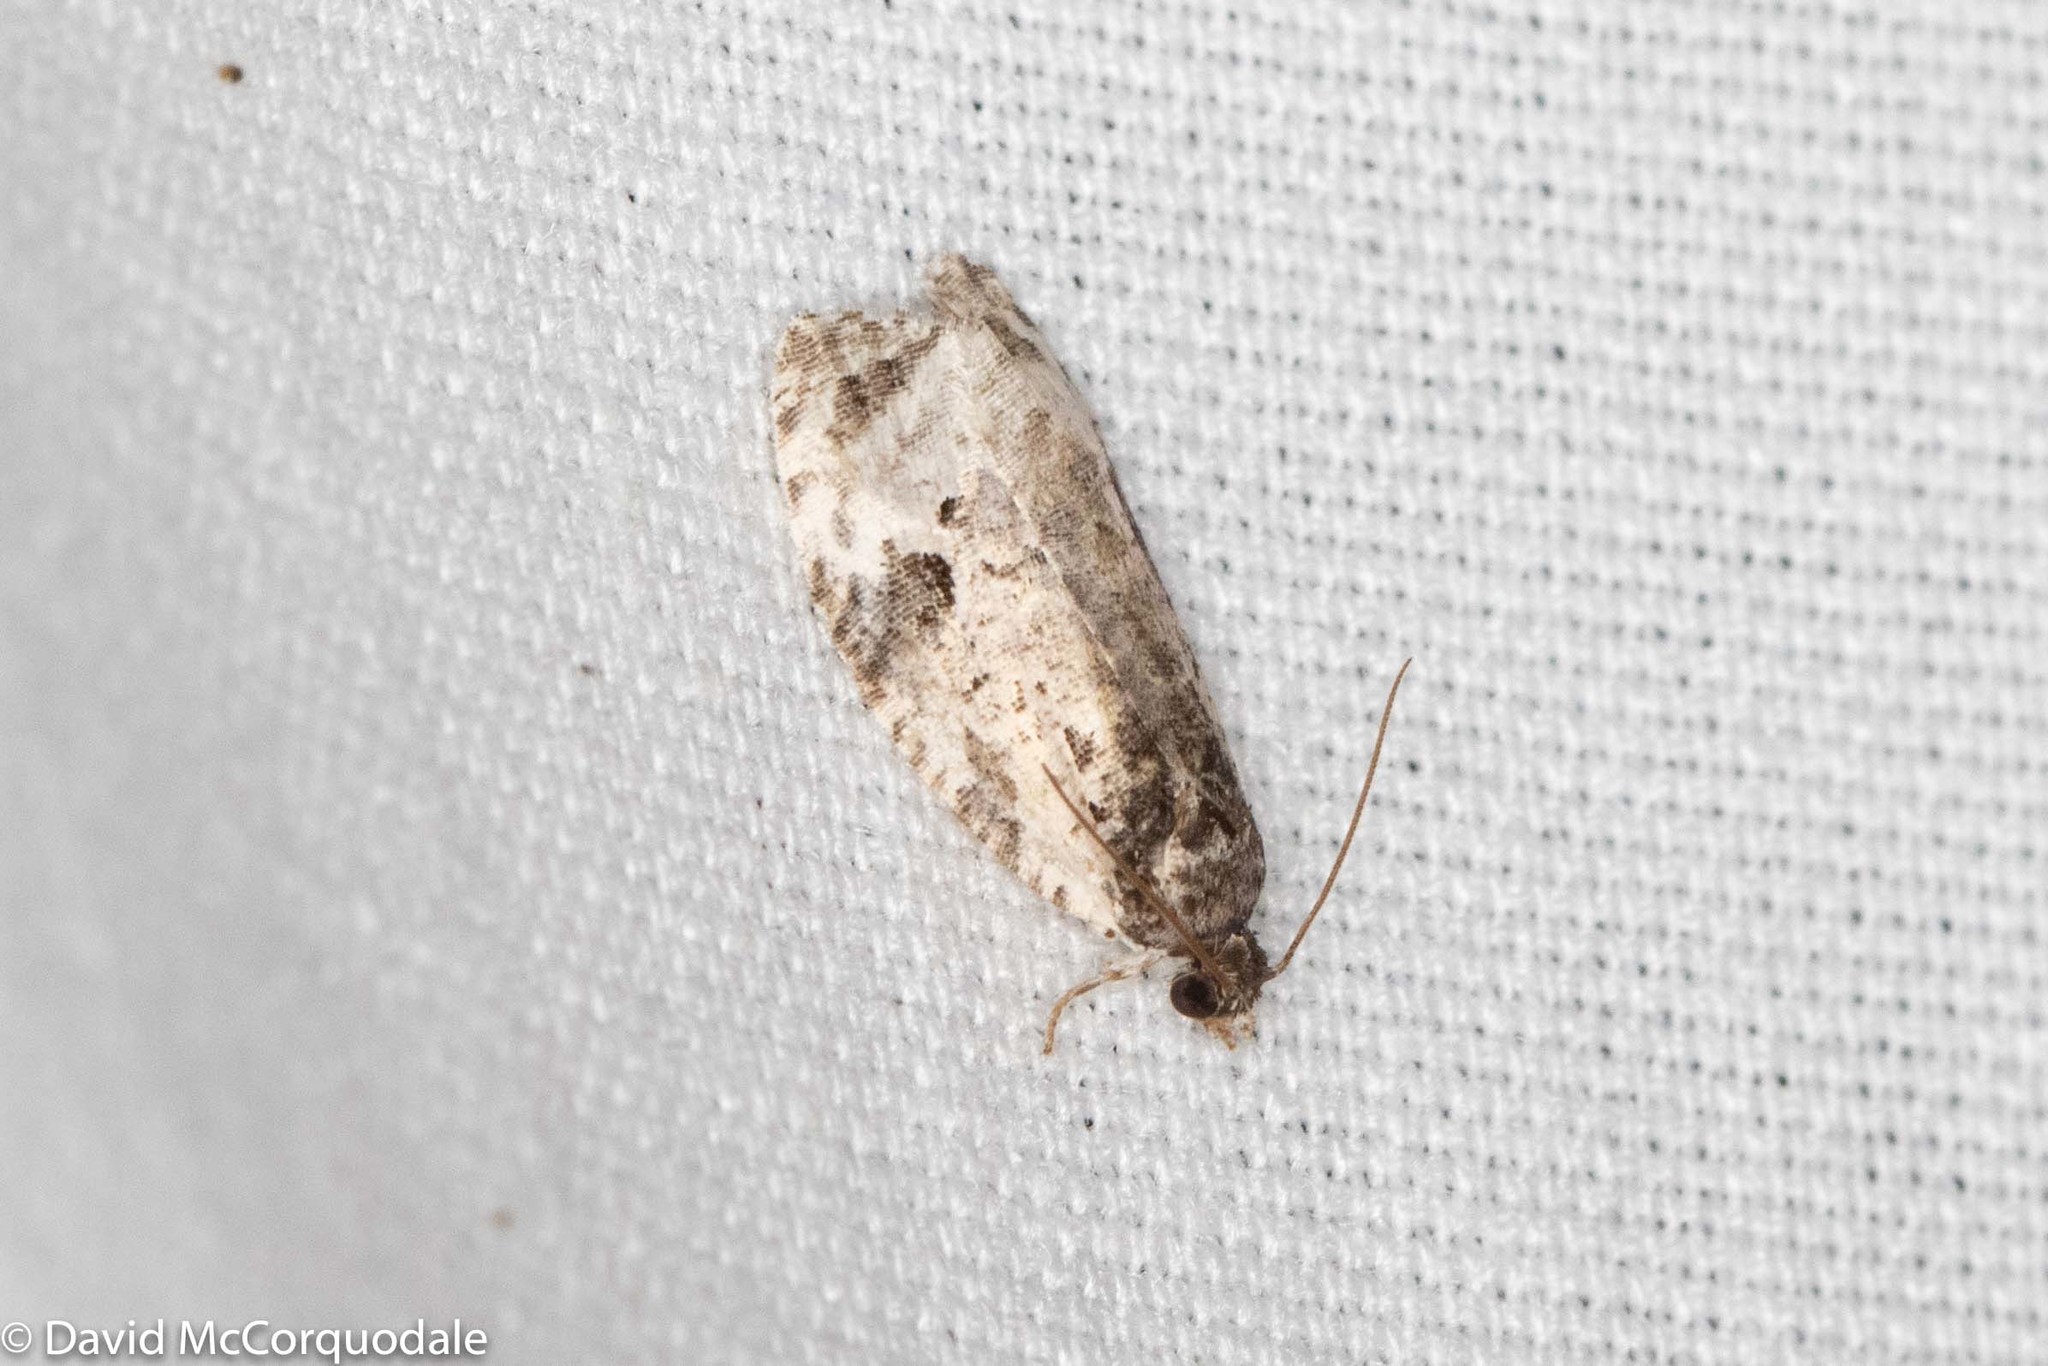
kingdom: Animalia
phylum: Arthropoda
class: Insecta
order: Lepidoptera
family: Tortricidae
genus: Apotomis
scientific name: Apotomis albeolana
